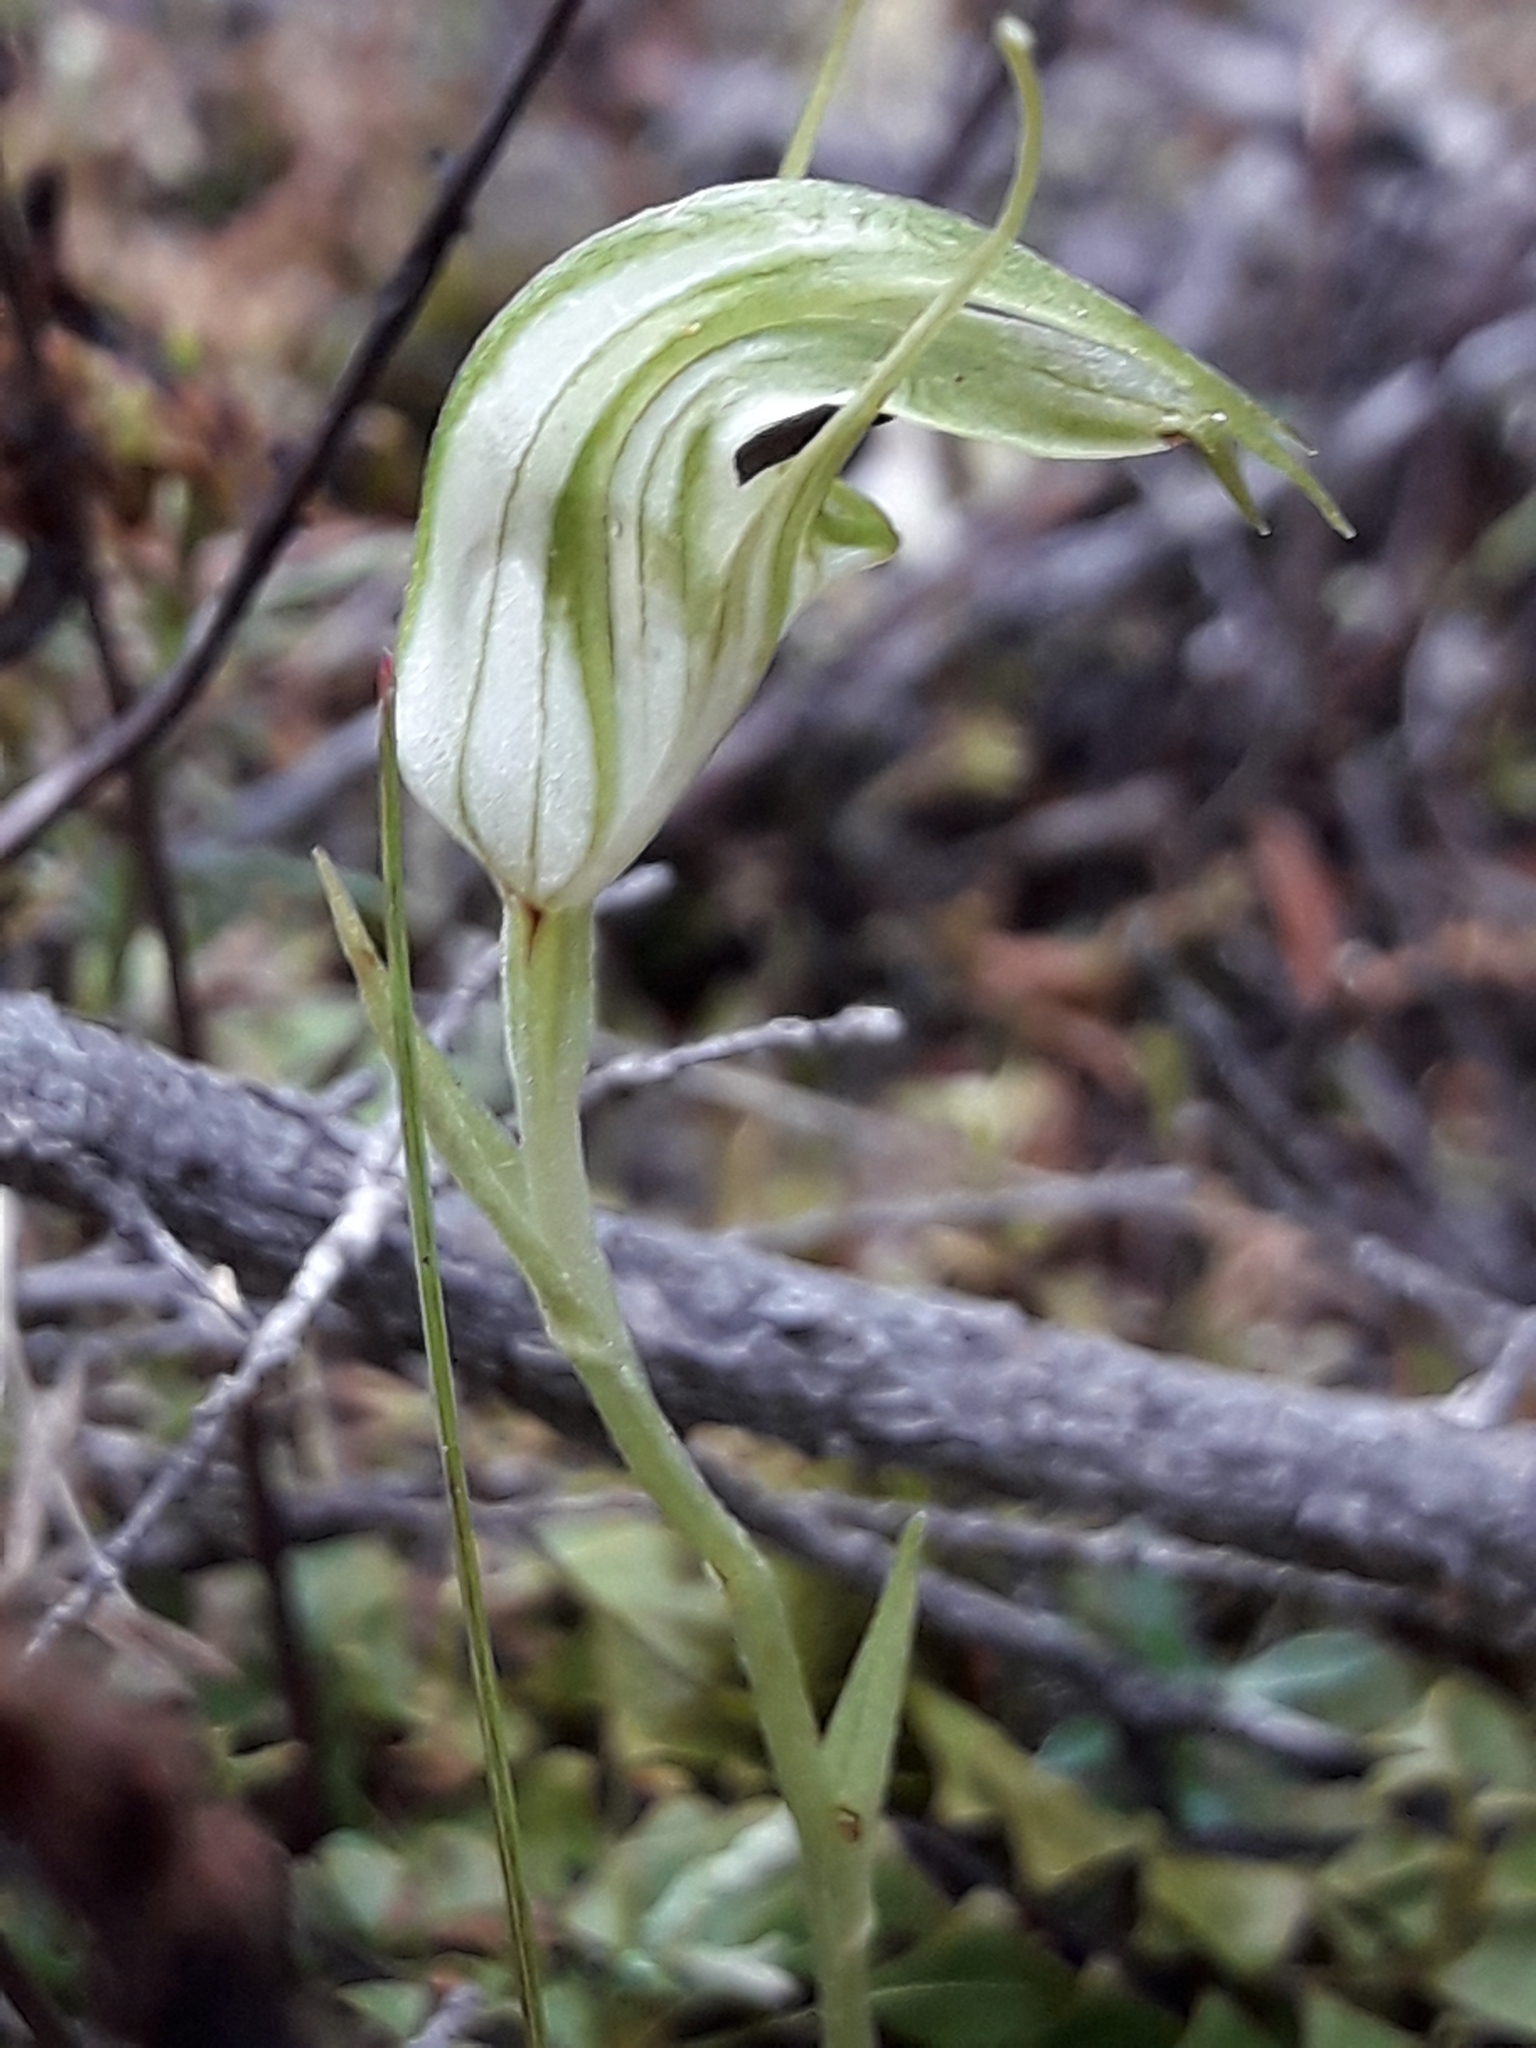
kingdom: Plantae
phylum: Tracheophyta
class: Liliopsida
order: Asparagales
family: Orchidaceae
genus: Pterostylis
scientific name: Pterostylis trullifolia
